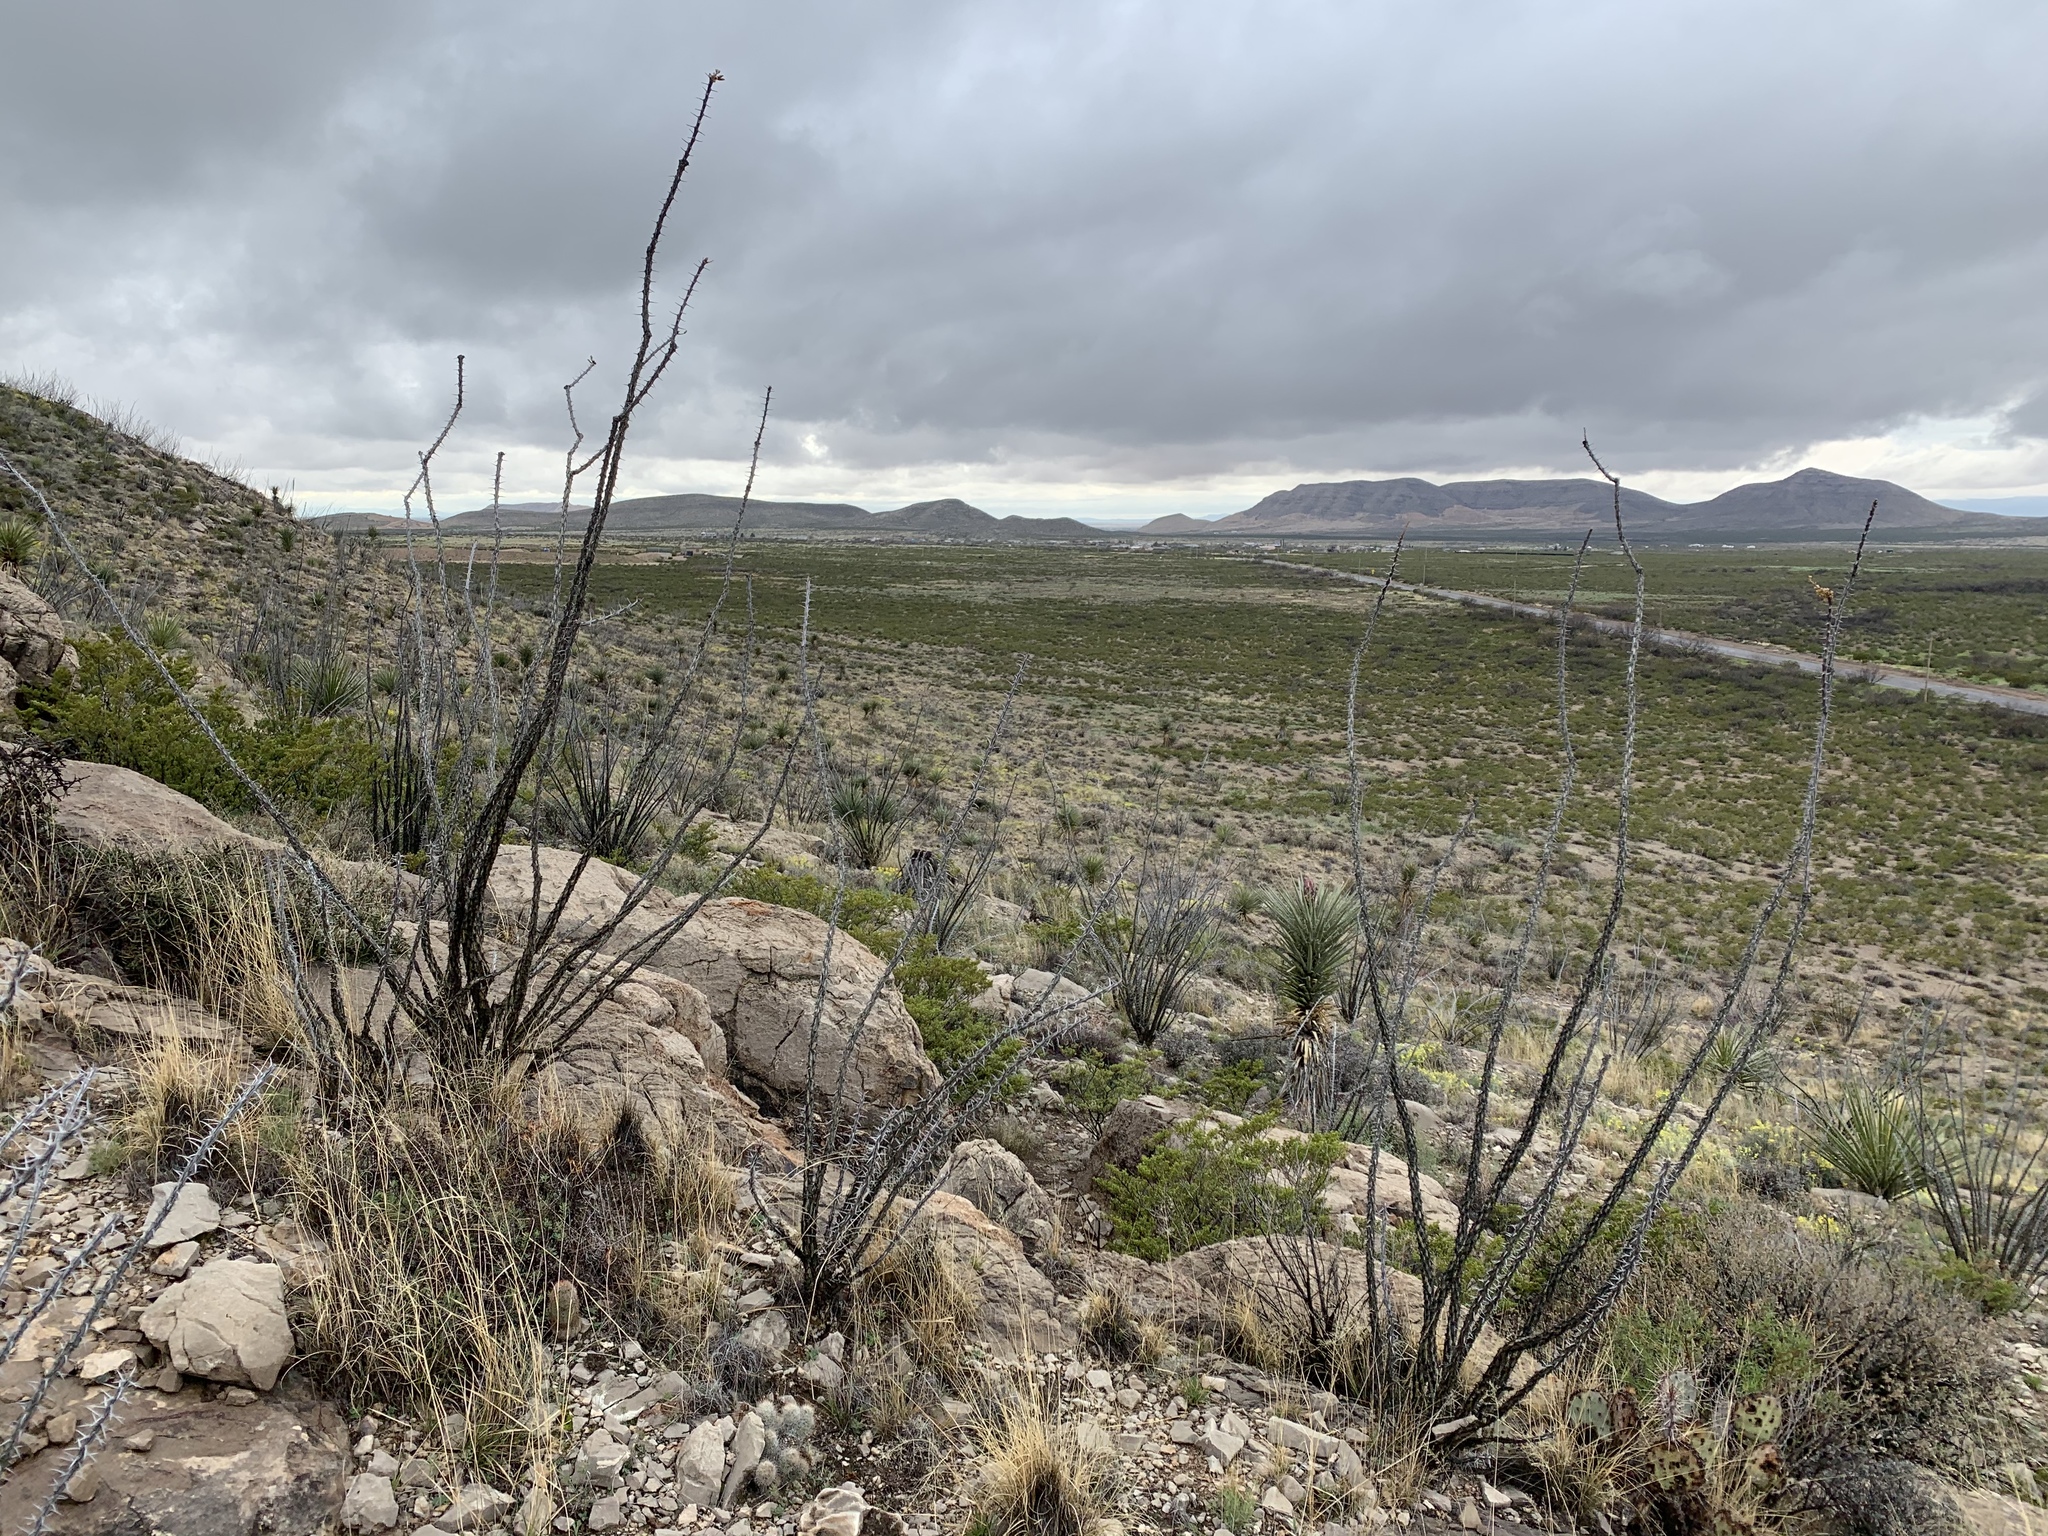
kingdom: Plantae
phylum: Tracheophyta
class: Magnoliopsida
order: Ericales
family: Fouquieriaceae
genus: Fouquieria
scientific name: Fouquieria splendens
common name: Vine-cactus
